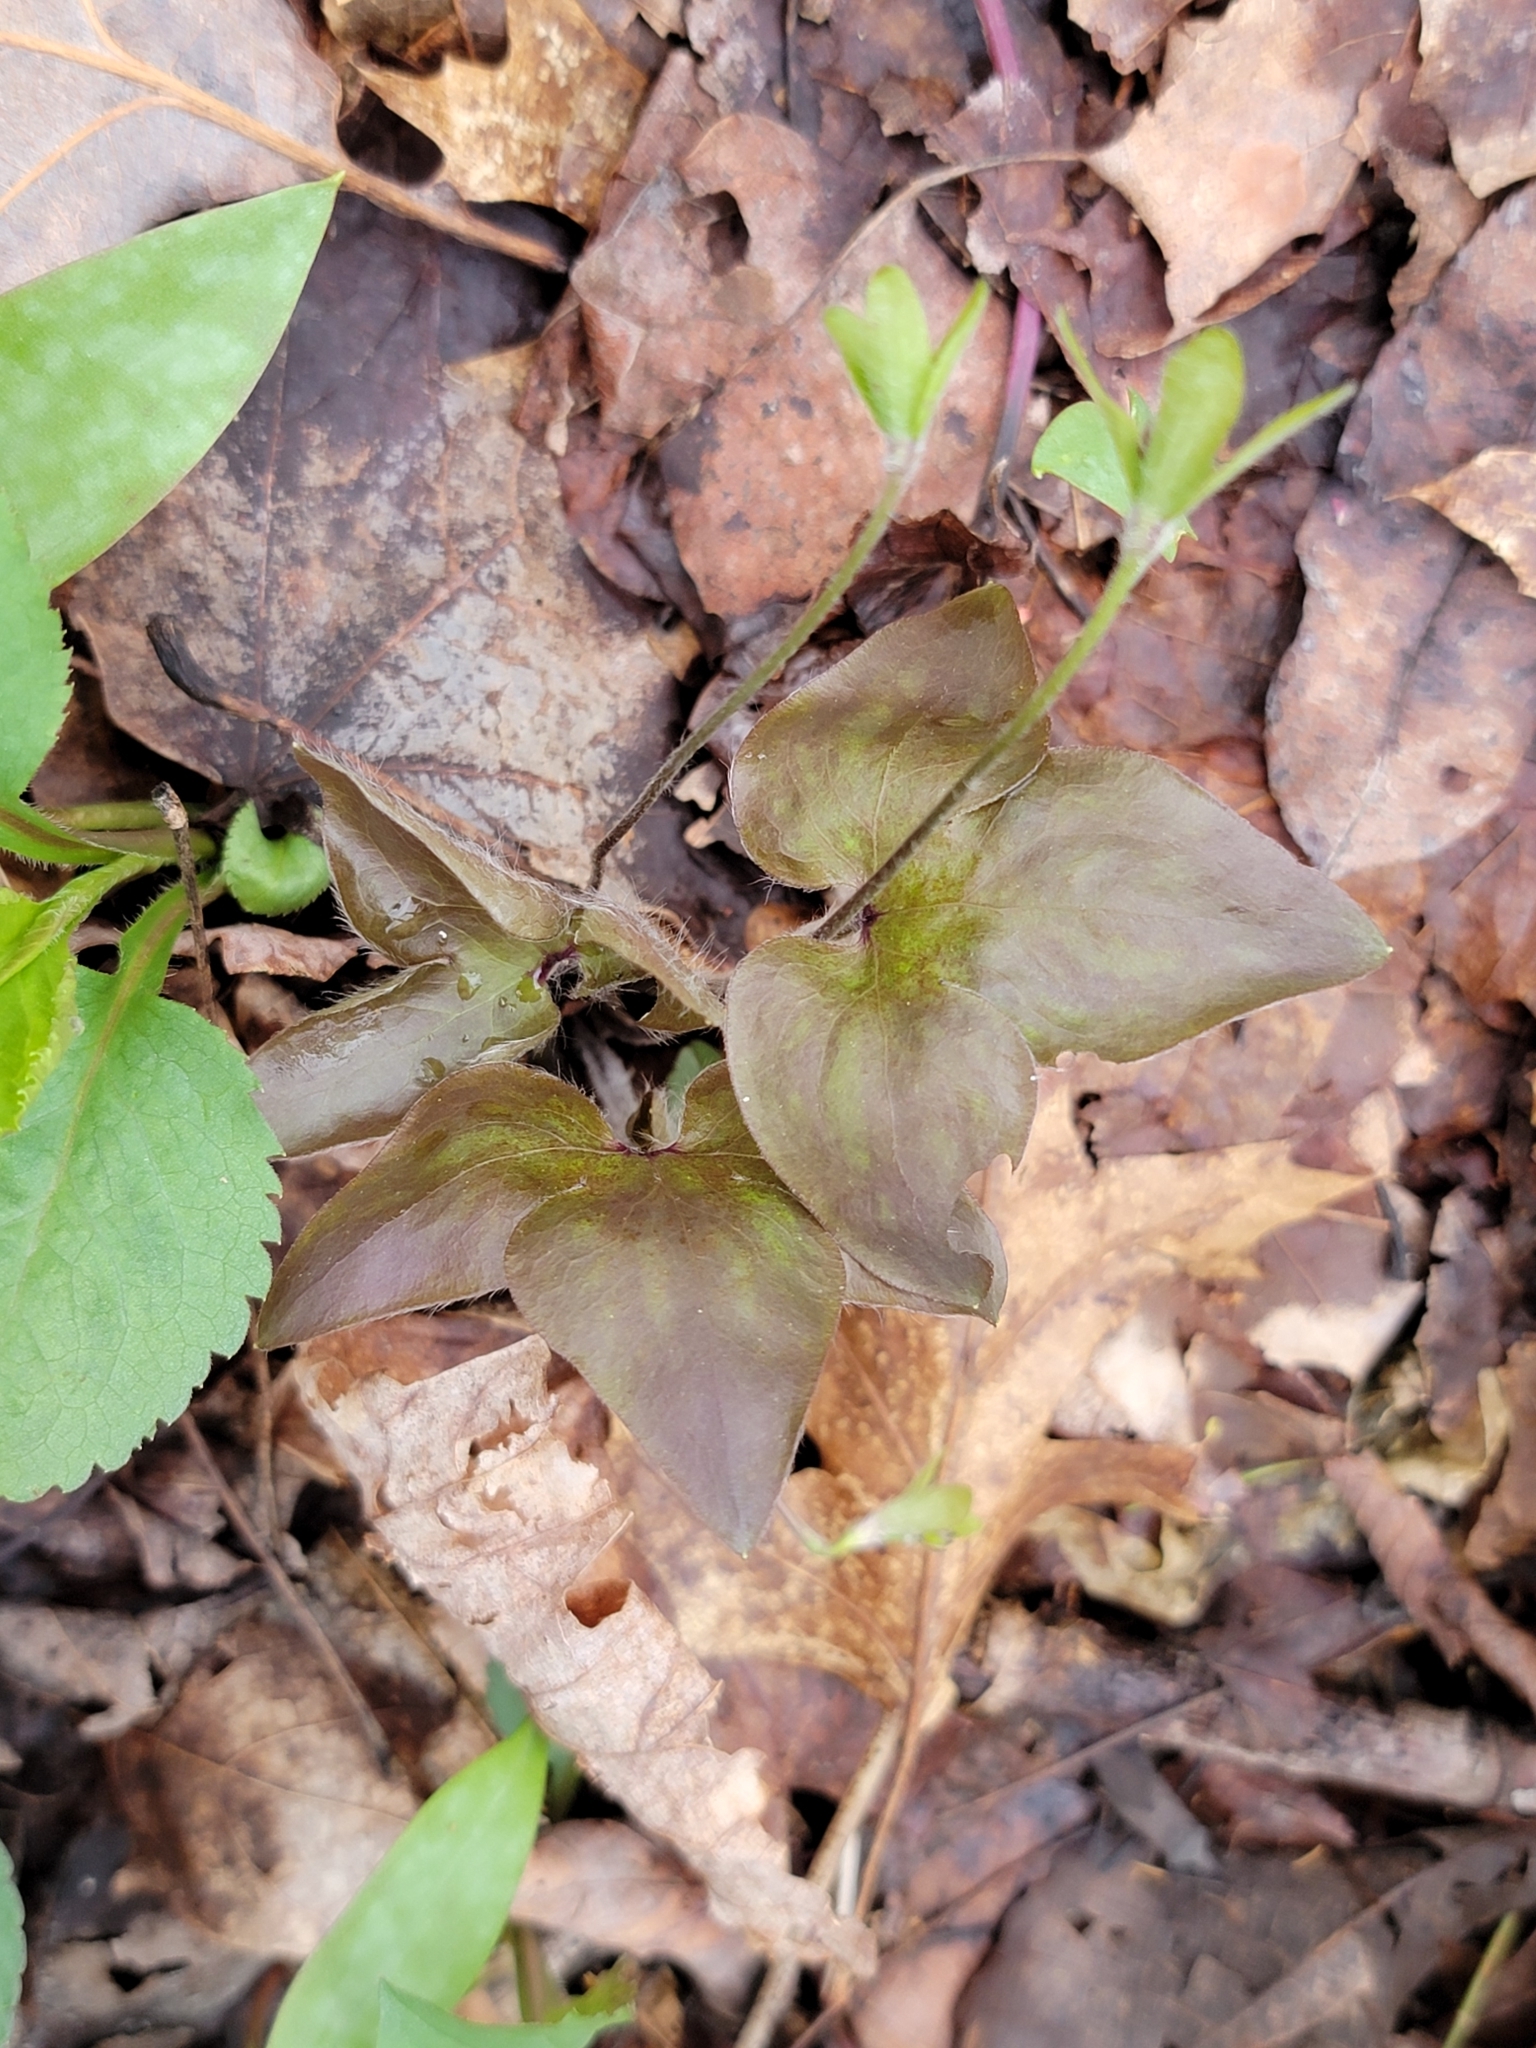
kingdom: Plantae
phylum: Tracheophyta
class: Magnoliopsida
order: Ranunculales
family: Ranunculaceae
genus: Hepatica
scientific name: Hepatica acutiloba
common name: Sharp-lobed hepatica
